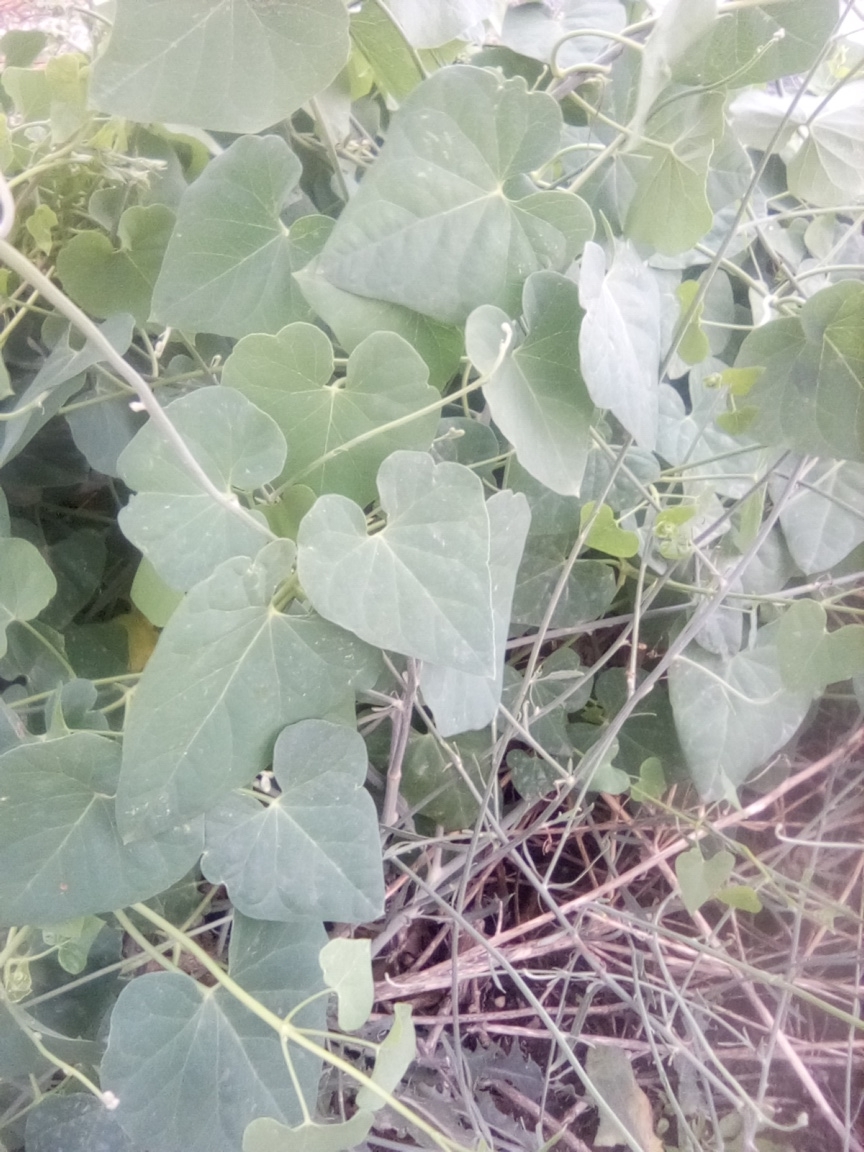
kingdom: Plantae
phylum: Tracheophyta
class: Magnoliopsida
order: Gentianales
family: Apocynaceae
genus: Cynanchum
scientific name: Cynanchum acutum
